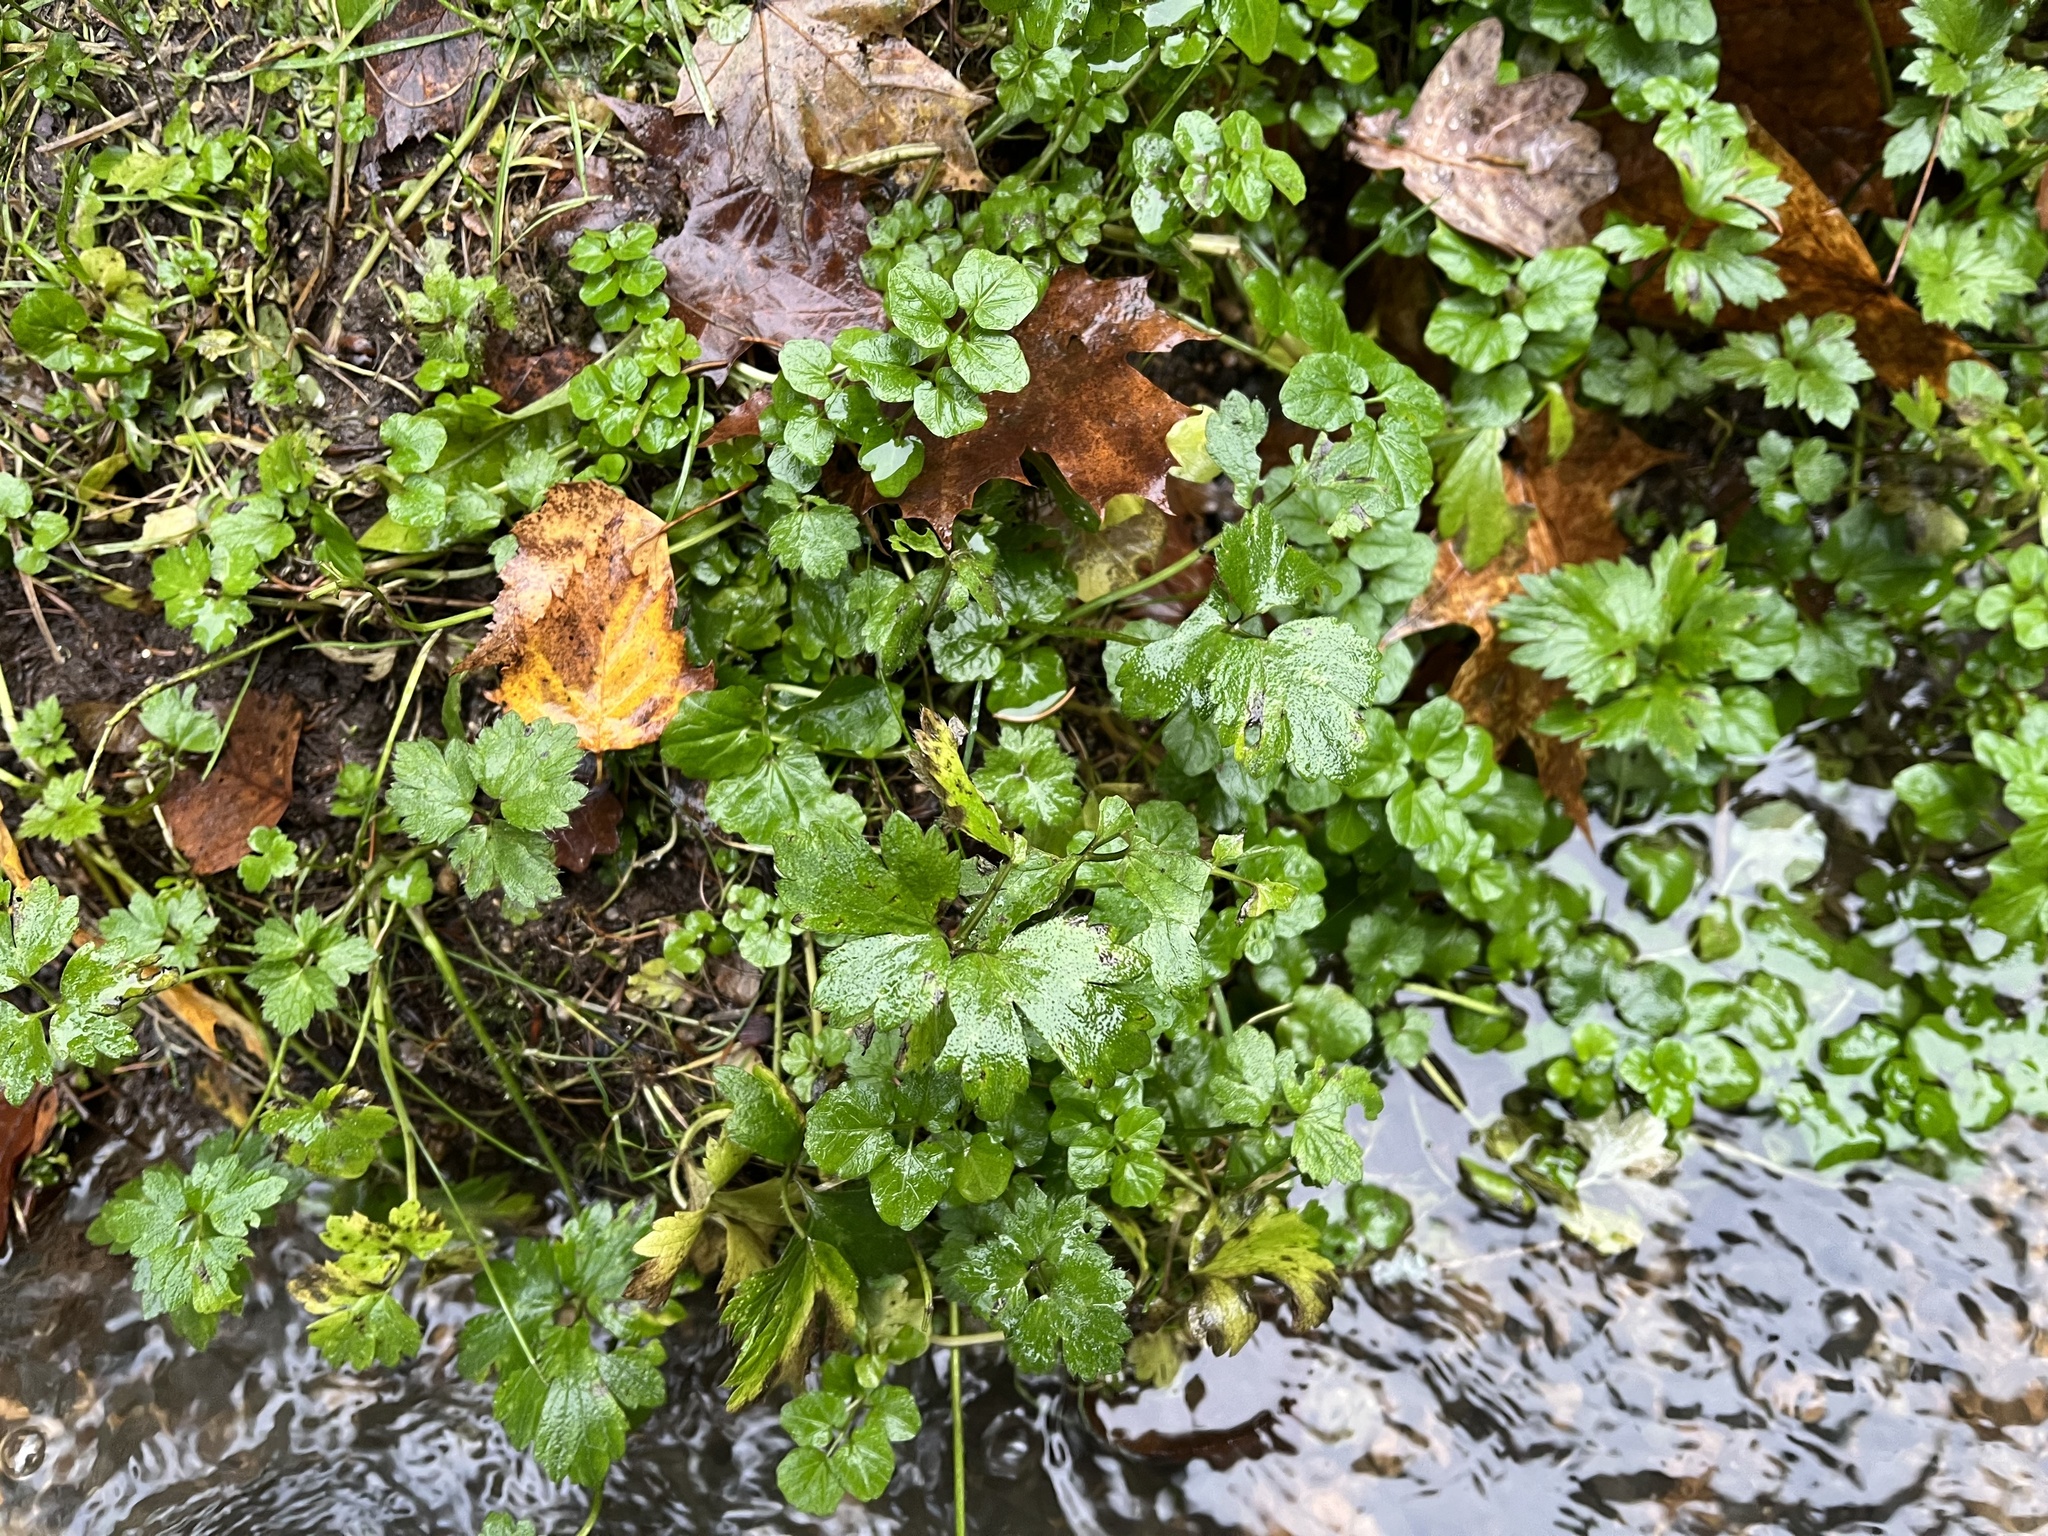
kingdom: Plantae
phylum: Tracheophyta
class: Magnoliopsida
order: Ranunculales
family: Ranunculaceae
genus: Ranunculus
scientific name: Ranunculus repens
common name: Creeping buttercup
